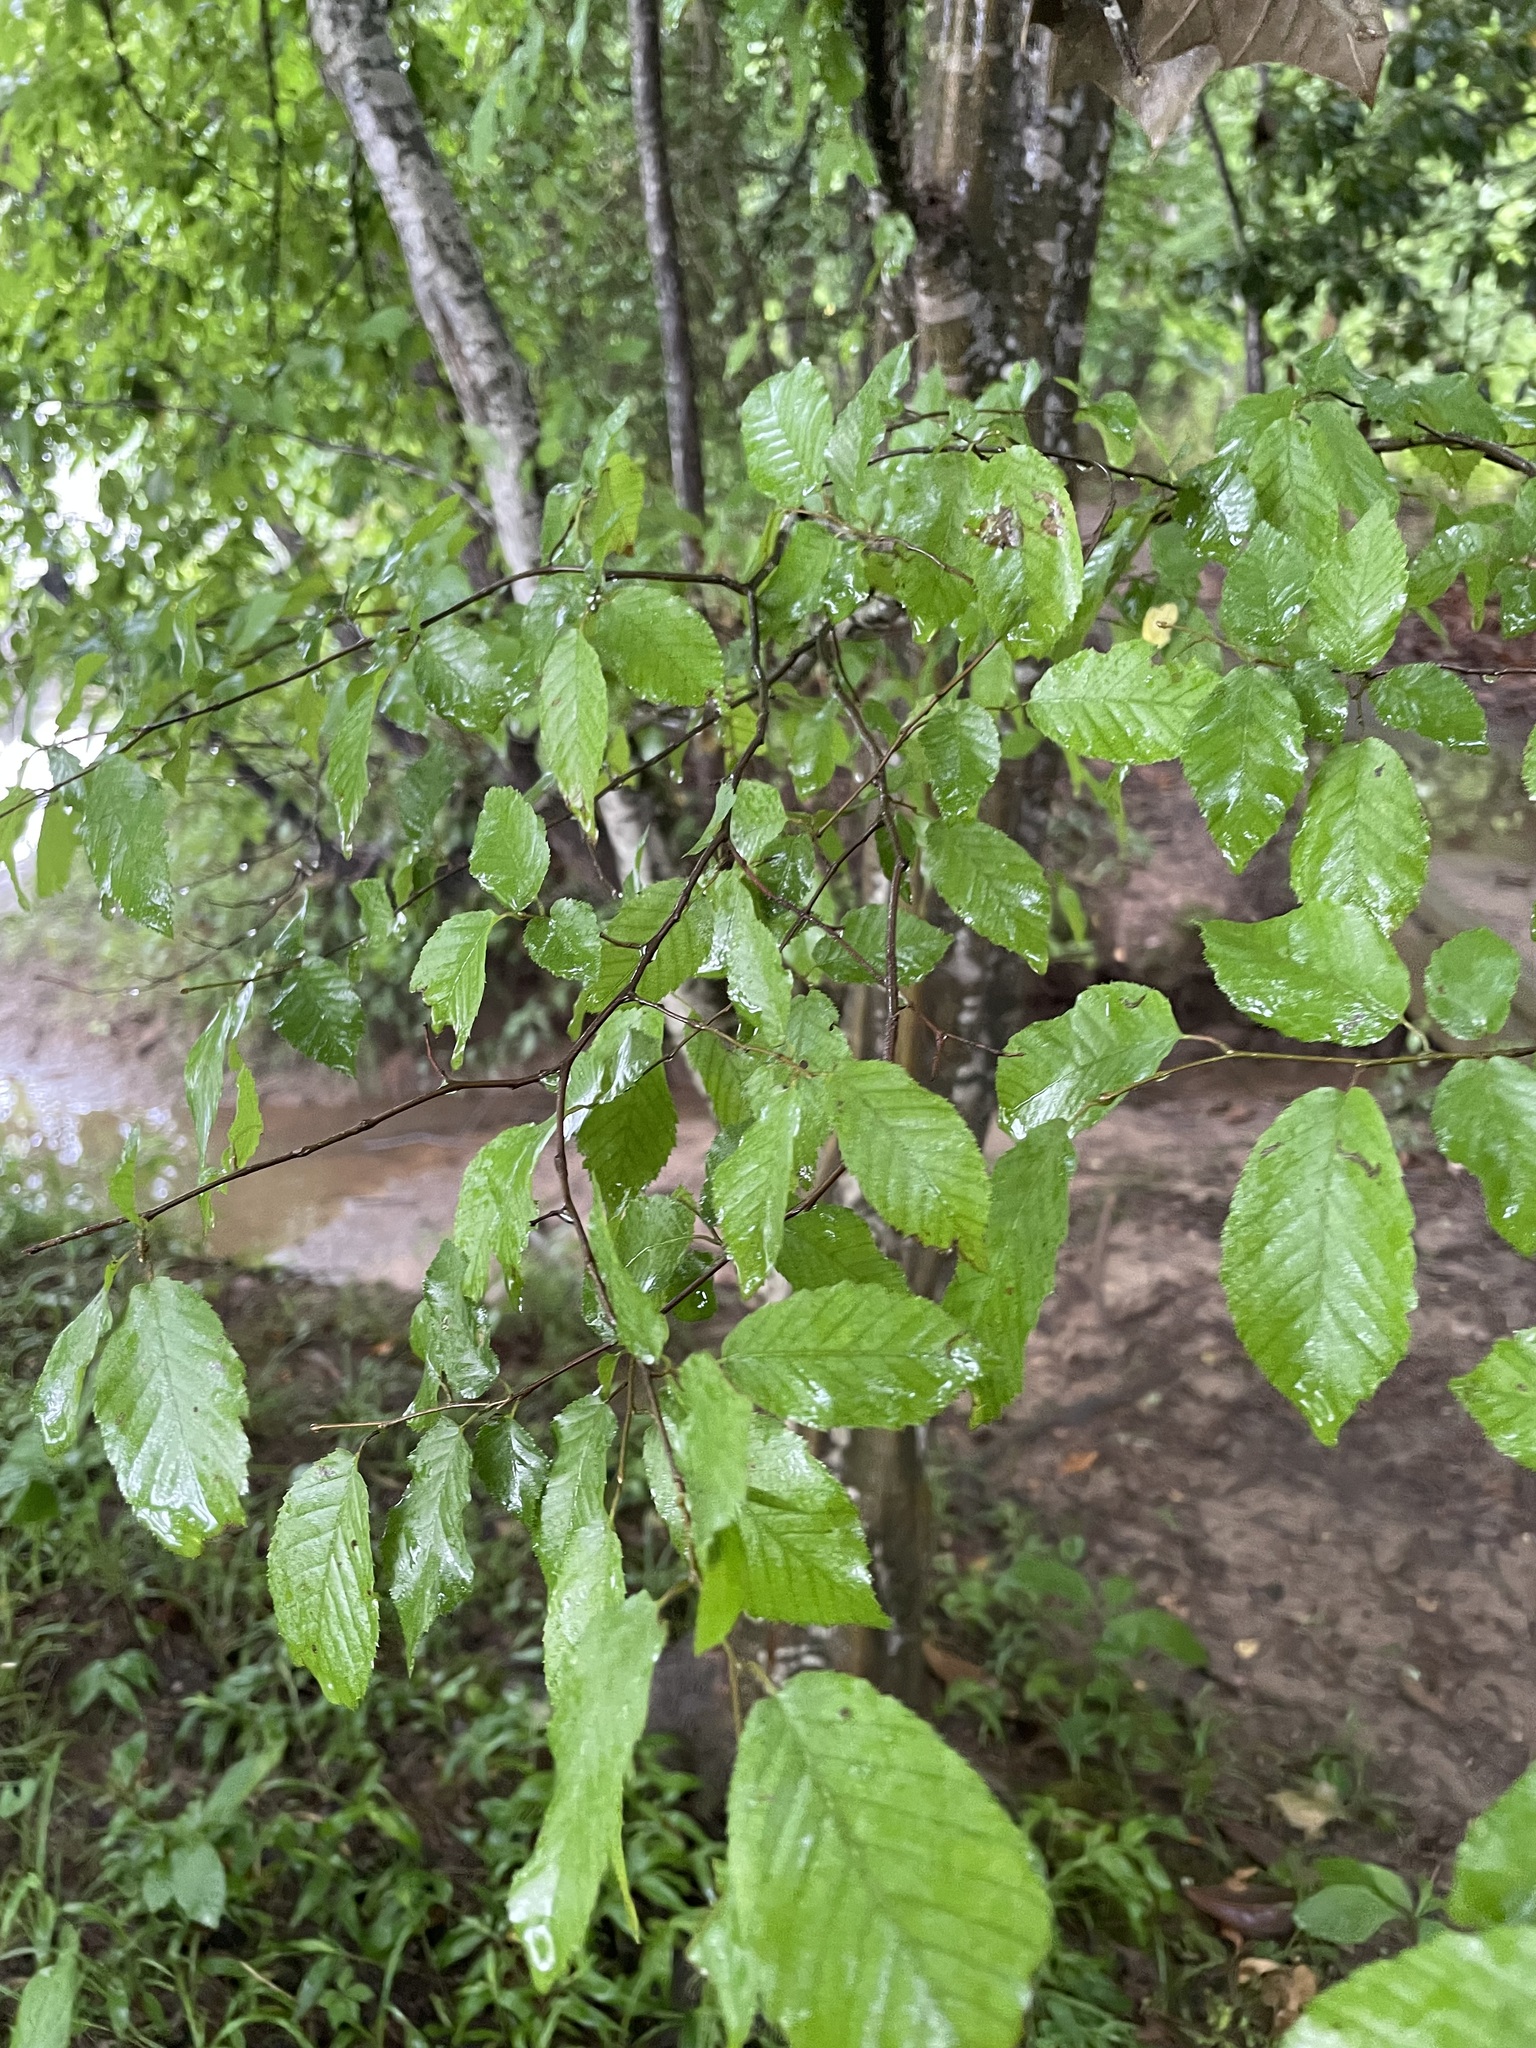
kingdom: Plantae
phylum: Tracheophyta
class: Magnoliopsida
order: Fagales
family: Betulaceae
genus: Carpinus
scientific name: Carpinus caroliniana
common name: American hornbeam
